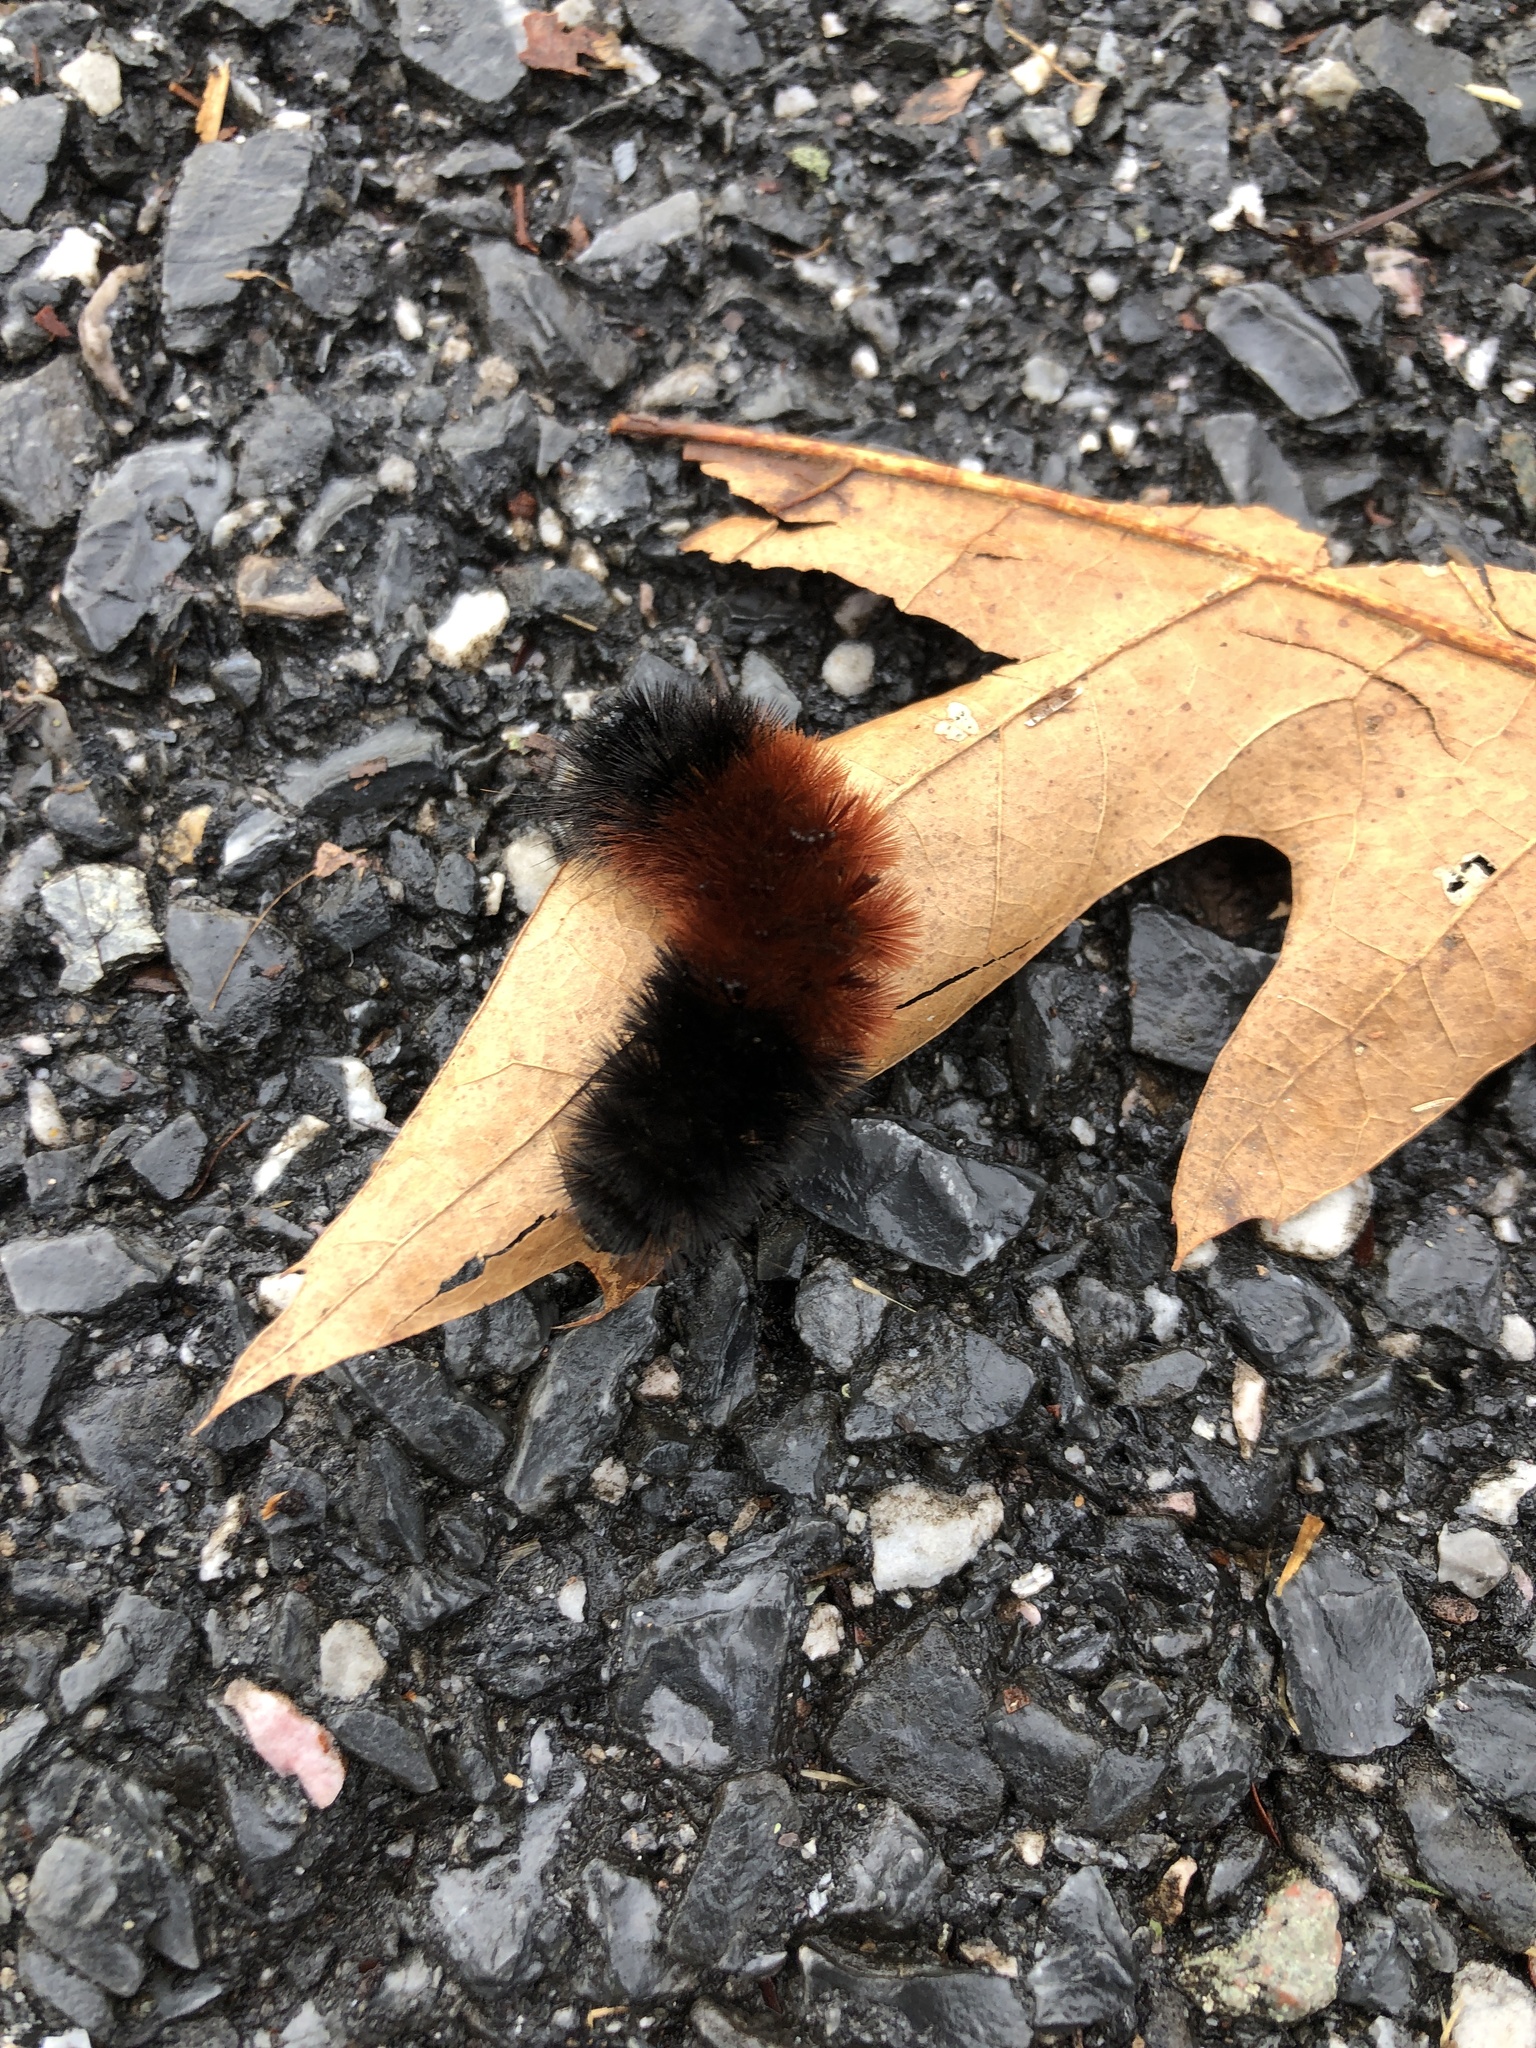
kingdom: Animalia
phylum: Arthropoda
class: Insecta
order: Lepidoptera
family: Erebidae
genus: Pyrrharctia
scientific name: Pyrrharctia isabella
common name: Isabella tiger moth
